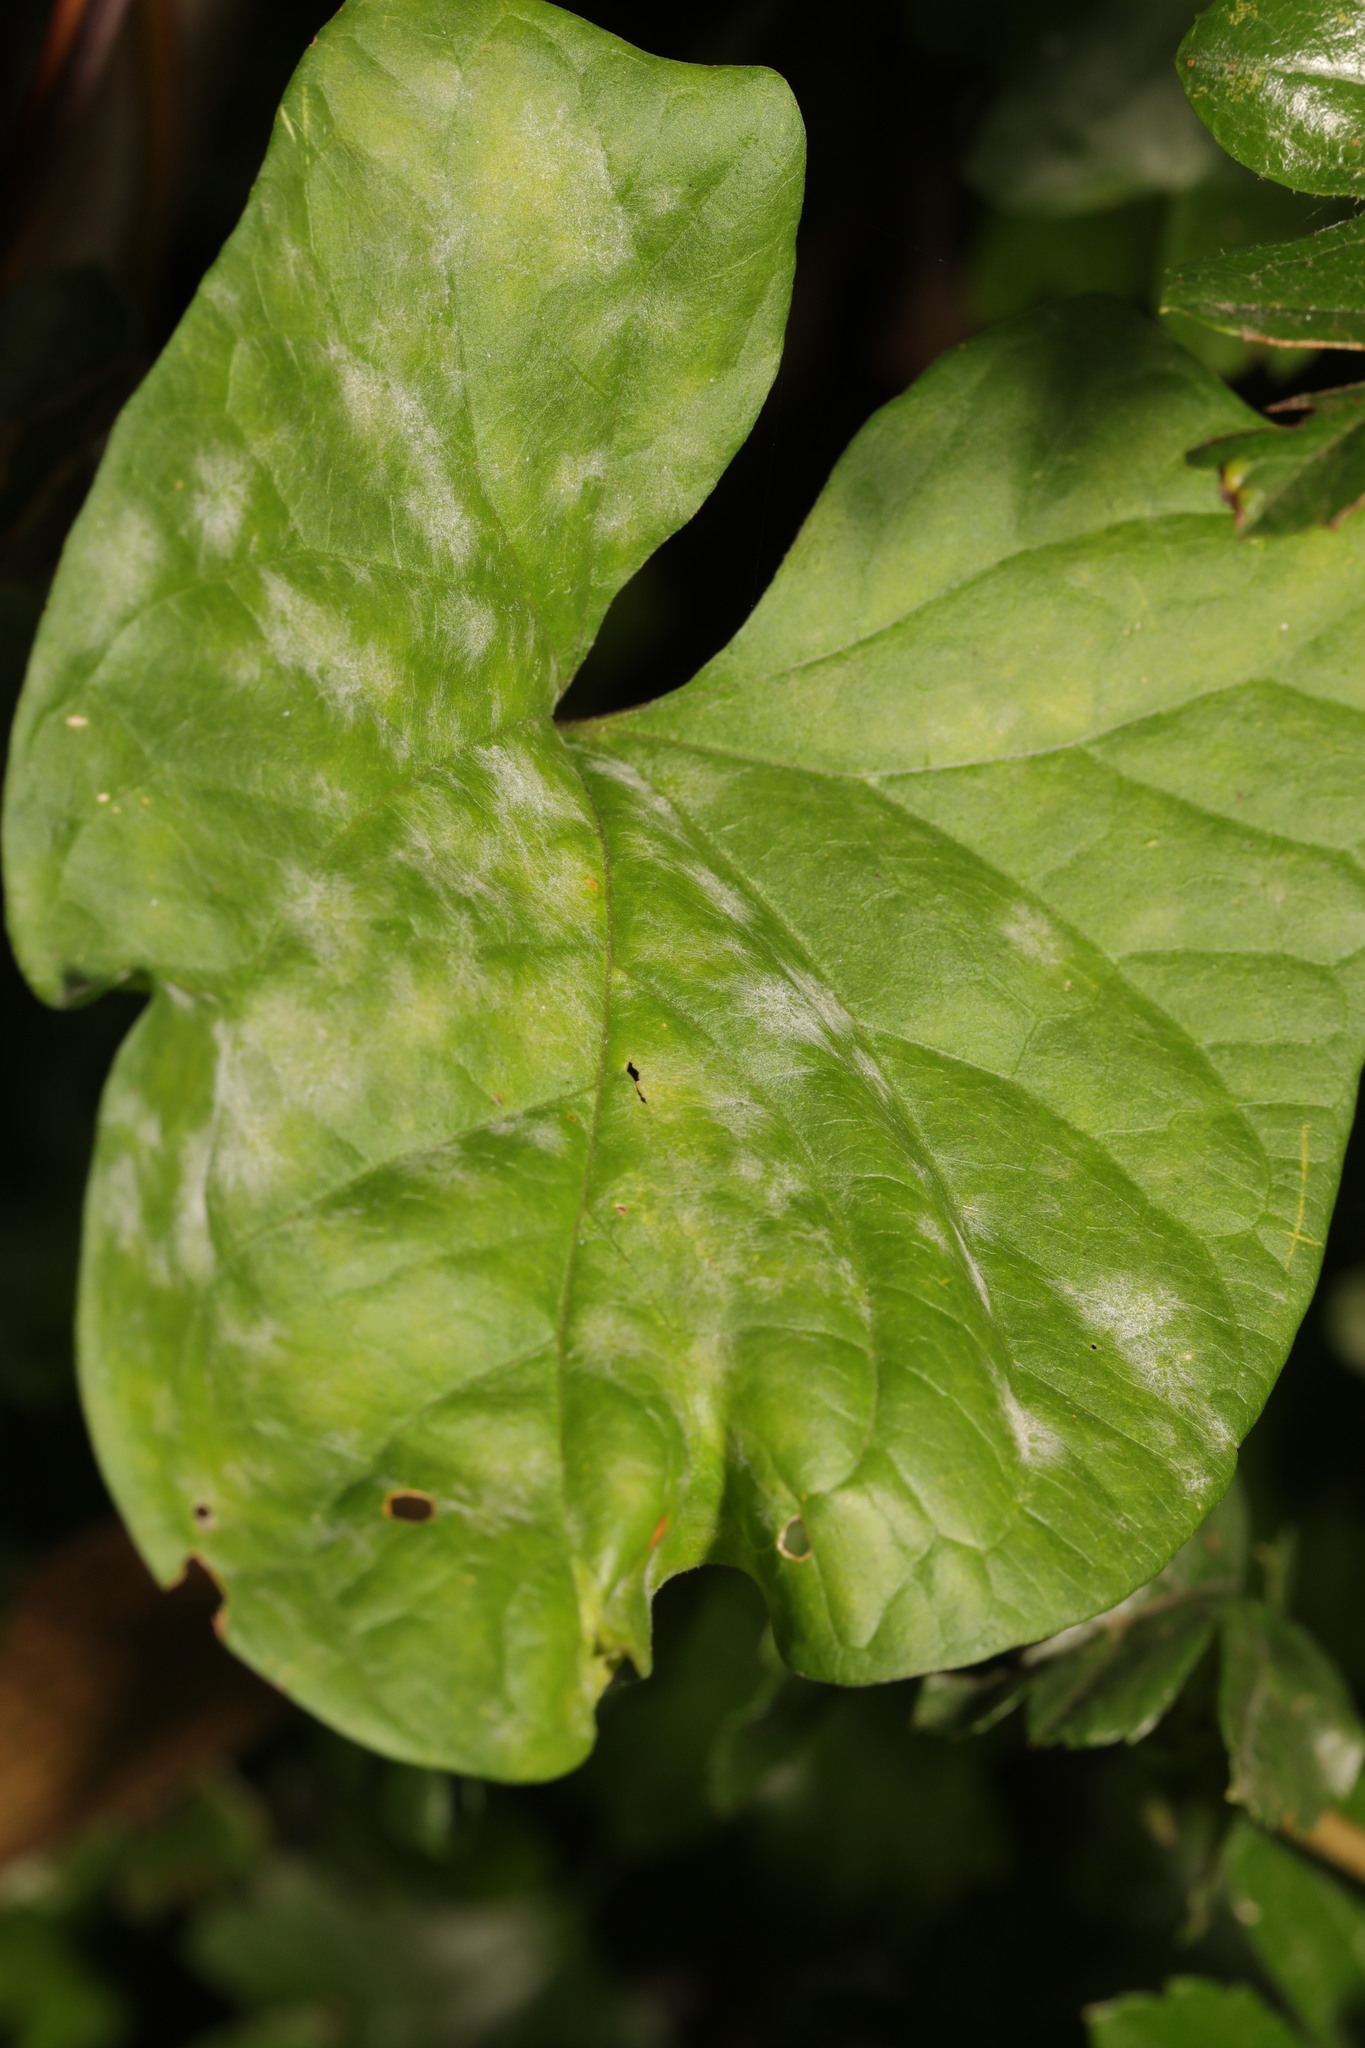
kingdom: Fungi
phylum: Ascomycota
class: Leotiomycetes
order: Helotiales
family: Erysiphaceae
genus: Erysiphe
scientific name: Erysiphe convolvuli
